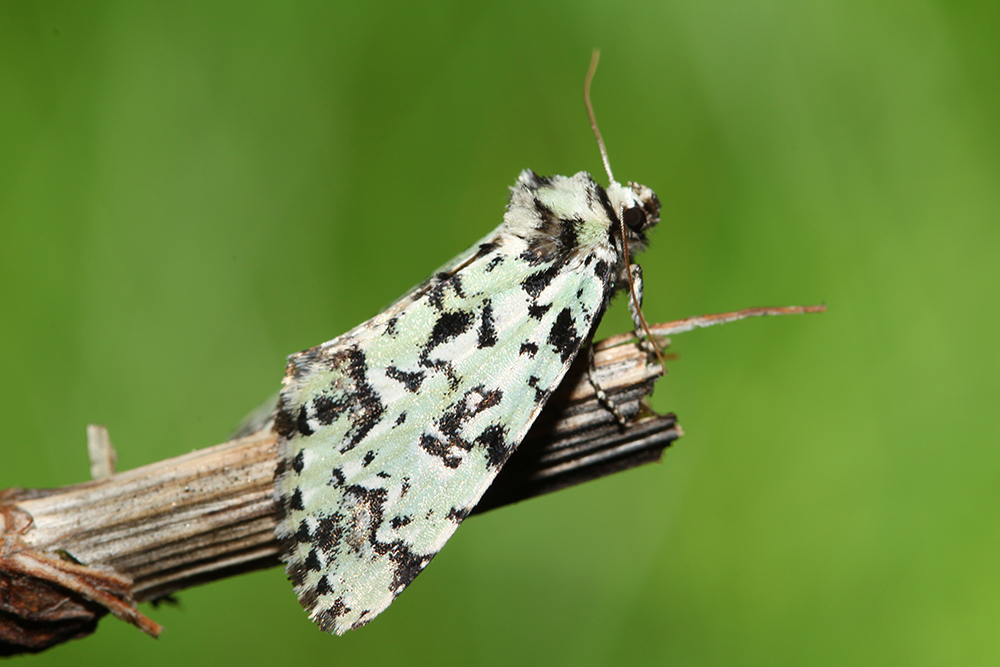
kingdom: Animalia
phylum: Arthropoda
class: Insecta
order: Lepidoptera
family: Noctuidae
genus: Moma
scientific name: Moma alpium
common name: Scarce merveille du jour
